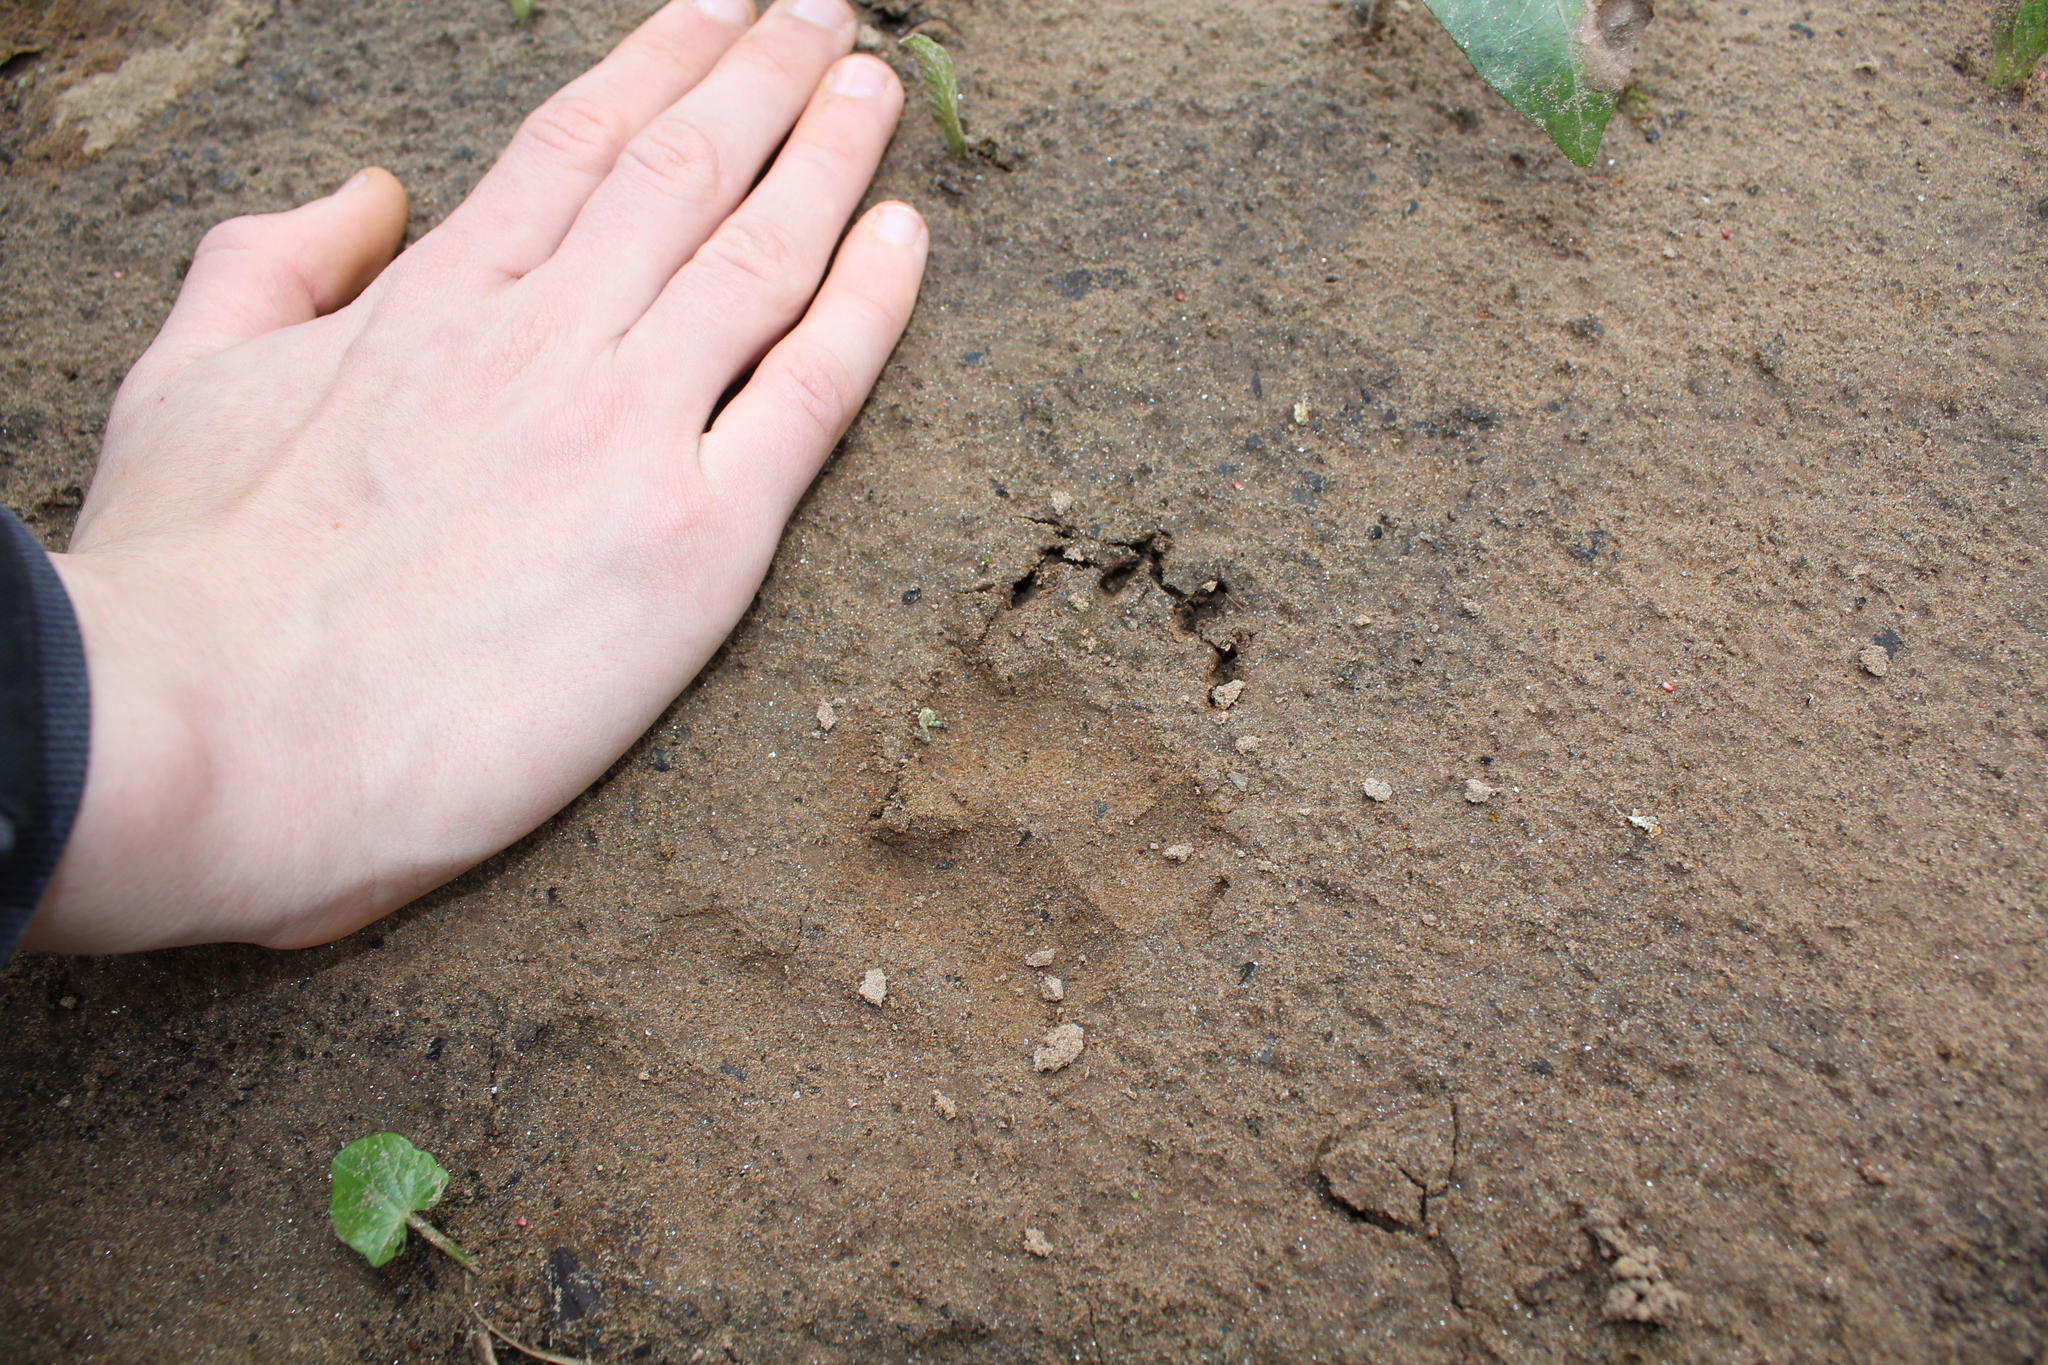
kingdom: Animalia
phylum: Chordata
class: Mammalia
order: Carnivora
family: Mustelidae
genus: Meles
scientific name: Meles meles
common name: Eurasian badger
